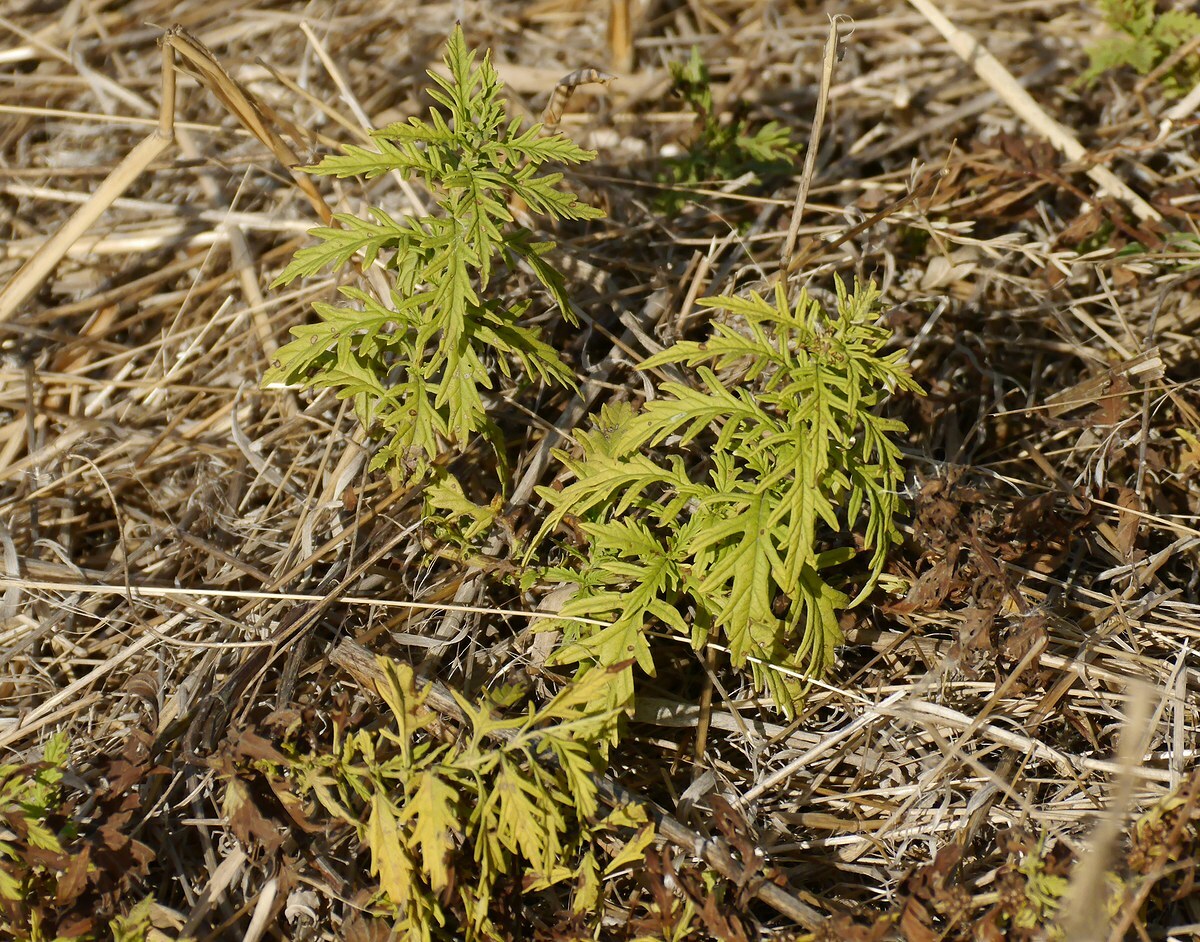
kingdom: Plantae
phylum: Tracheophyta
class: Magnoliopsida
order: Lamiales
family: Lamiaceae
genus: Lycopus
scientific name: Lycopus exaltatus
